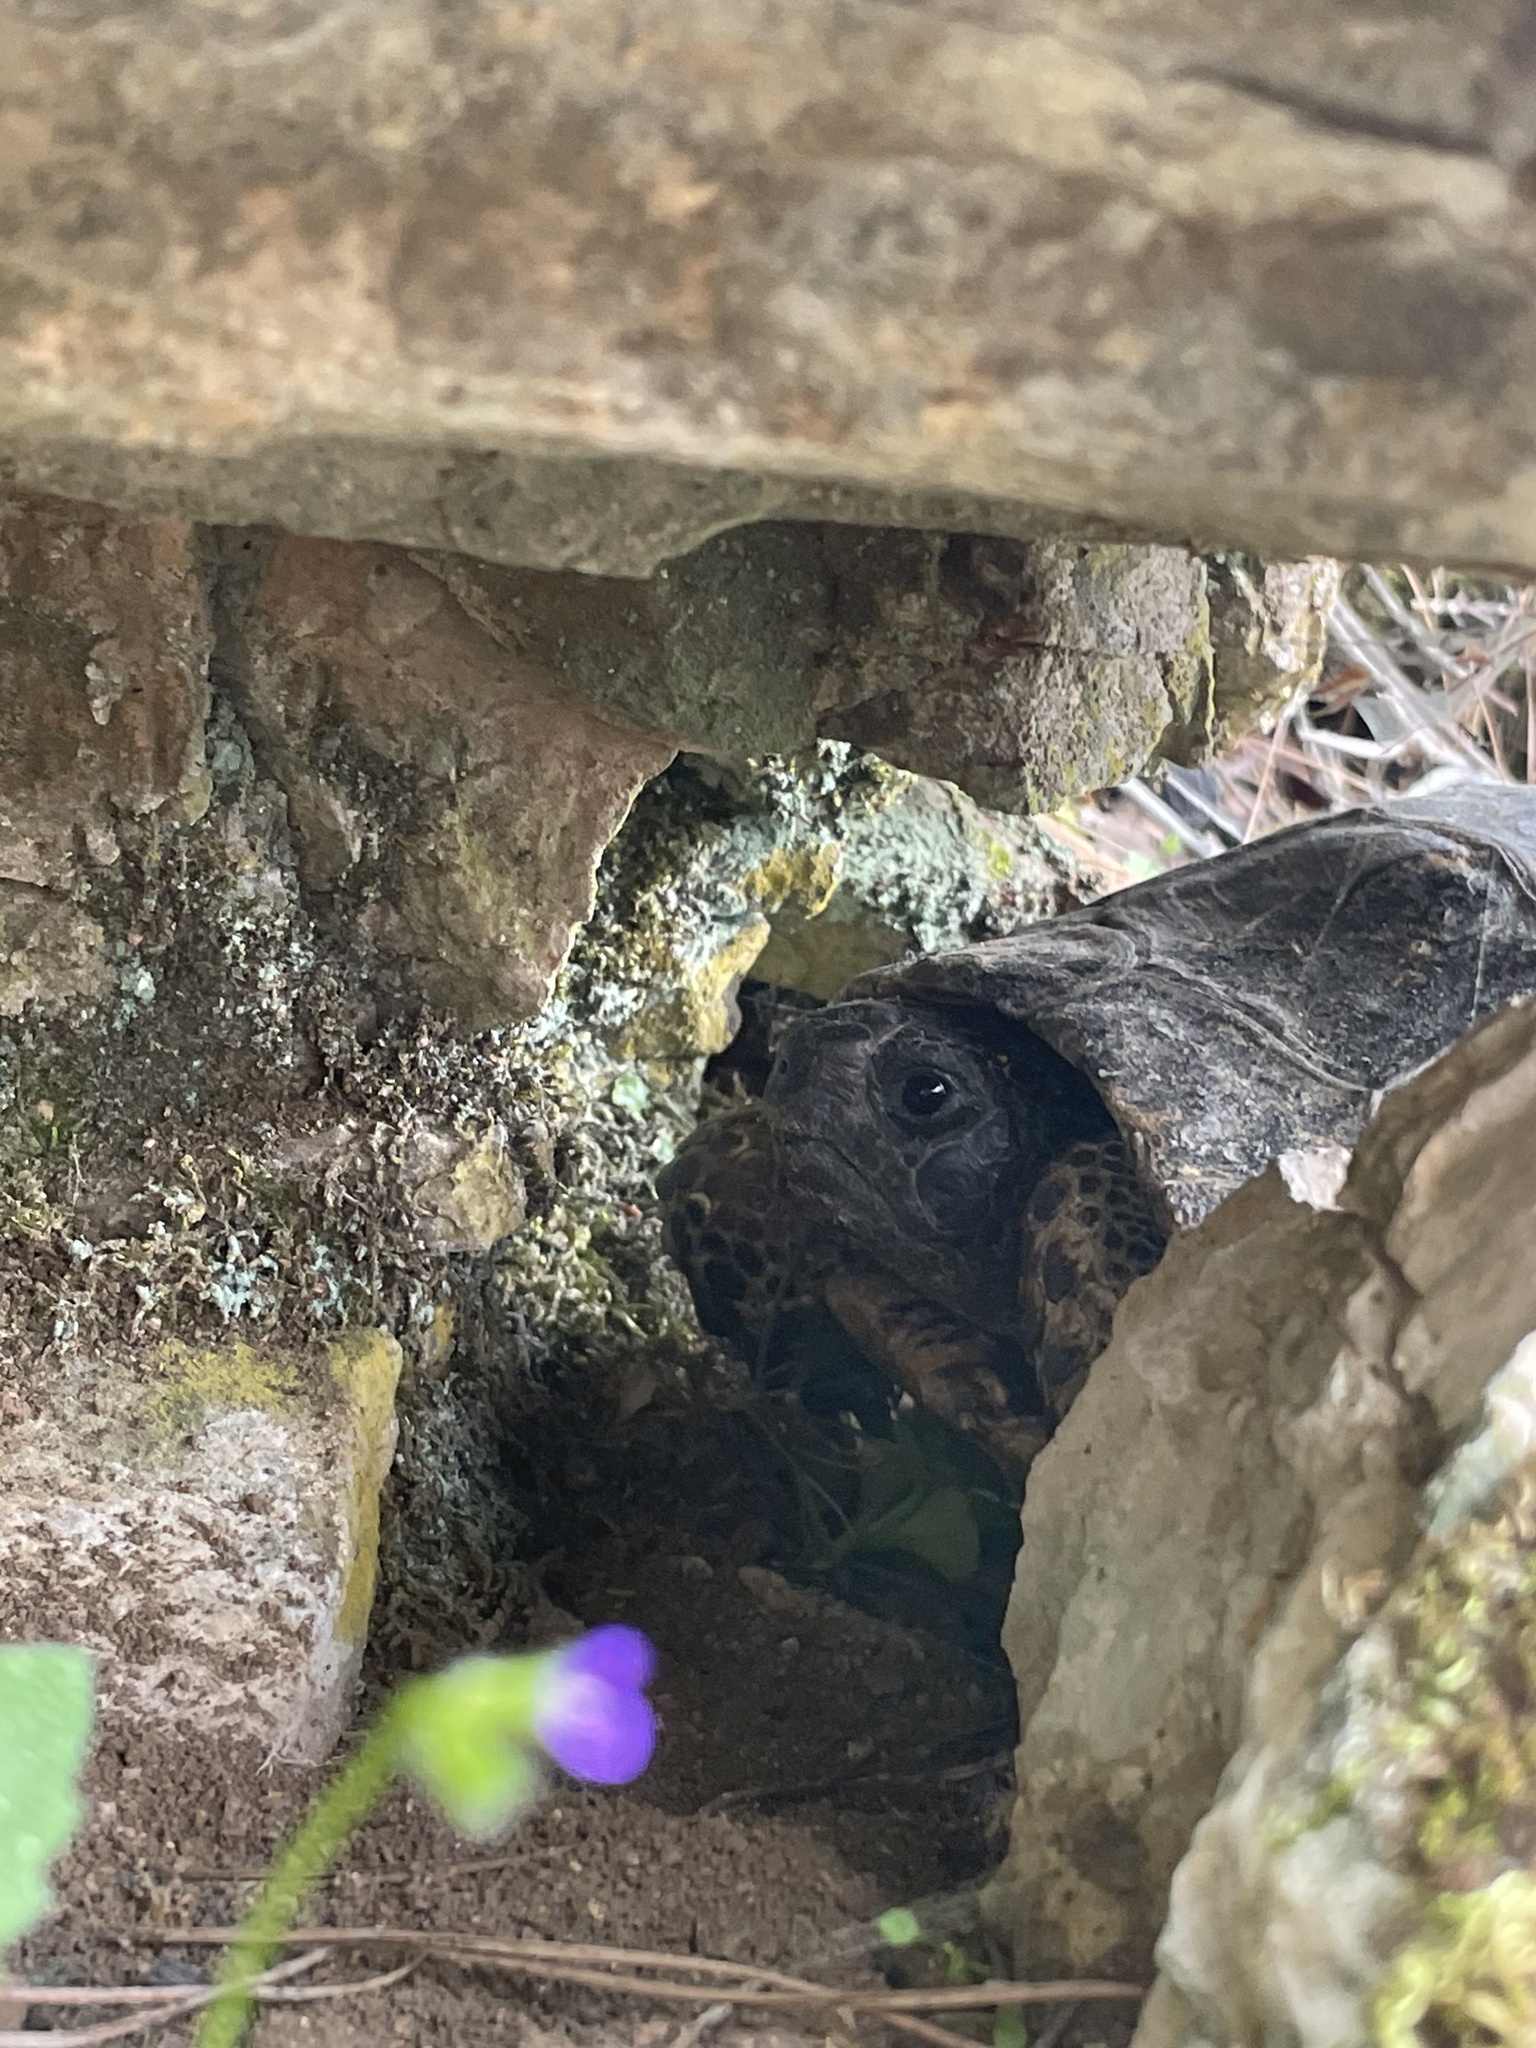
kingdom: Animalia
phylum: Chordata
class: Testudines
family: Testudinidae
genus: Testudo
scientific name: Testudo graeca
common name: Common tortoise
